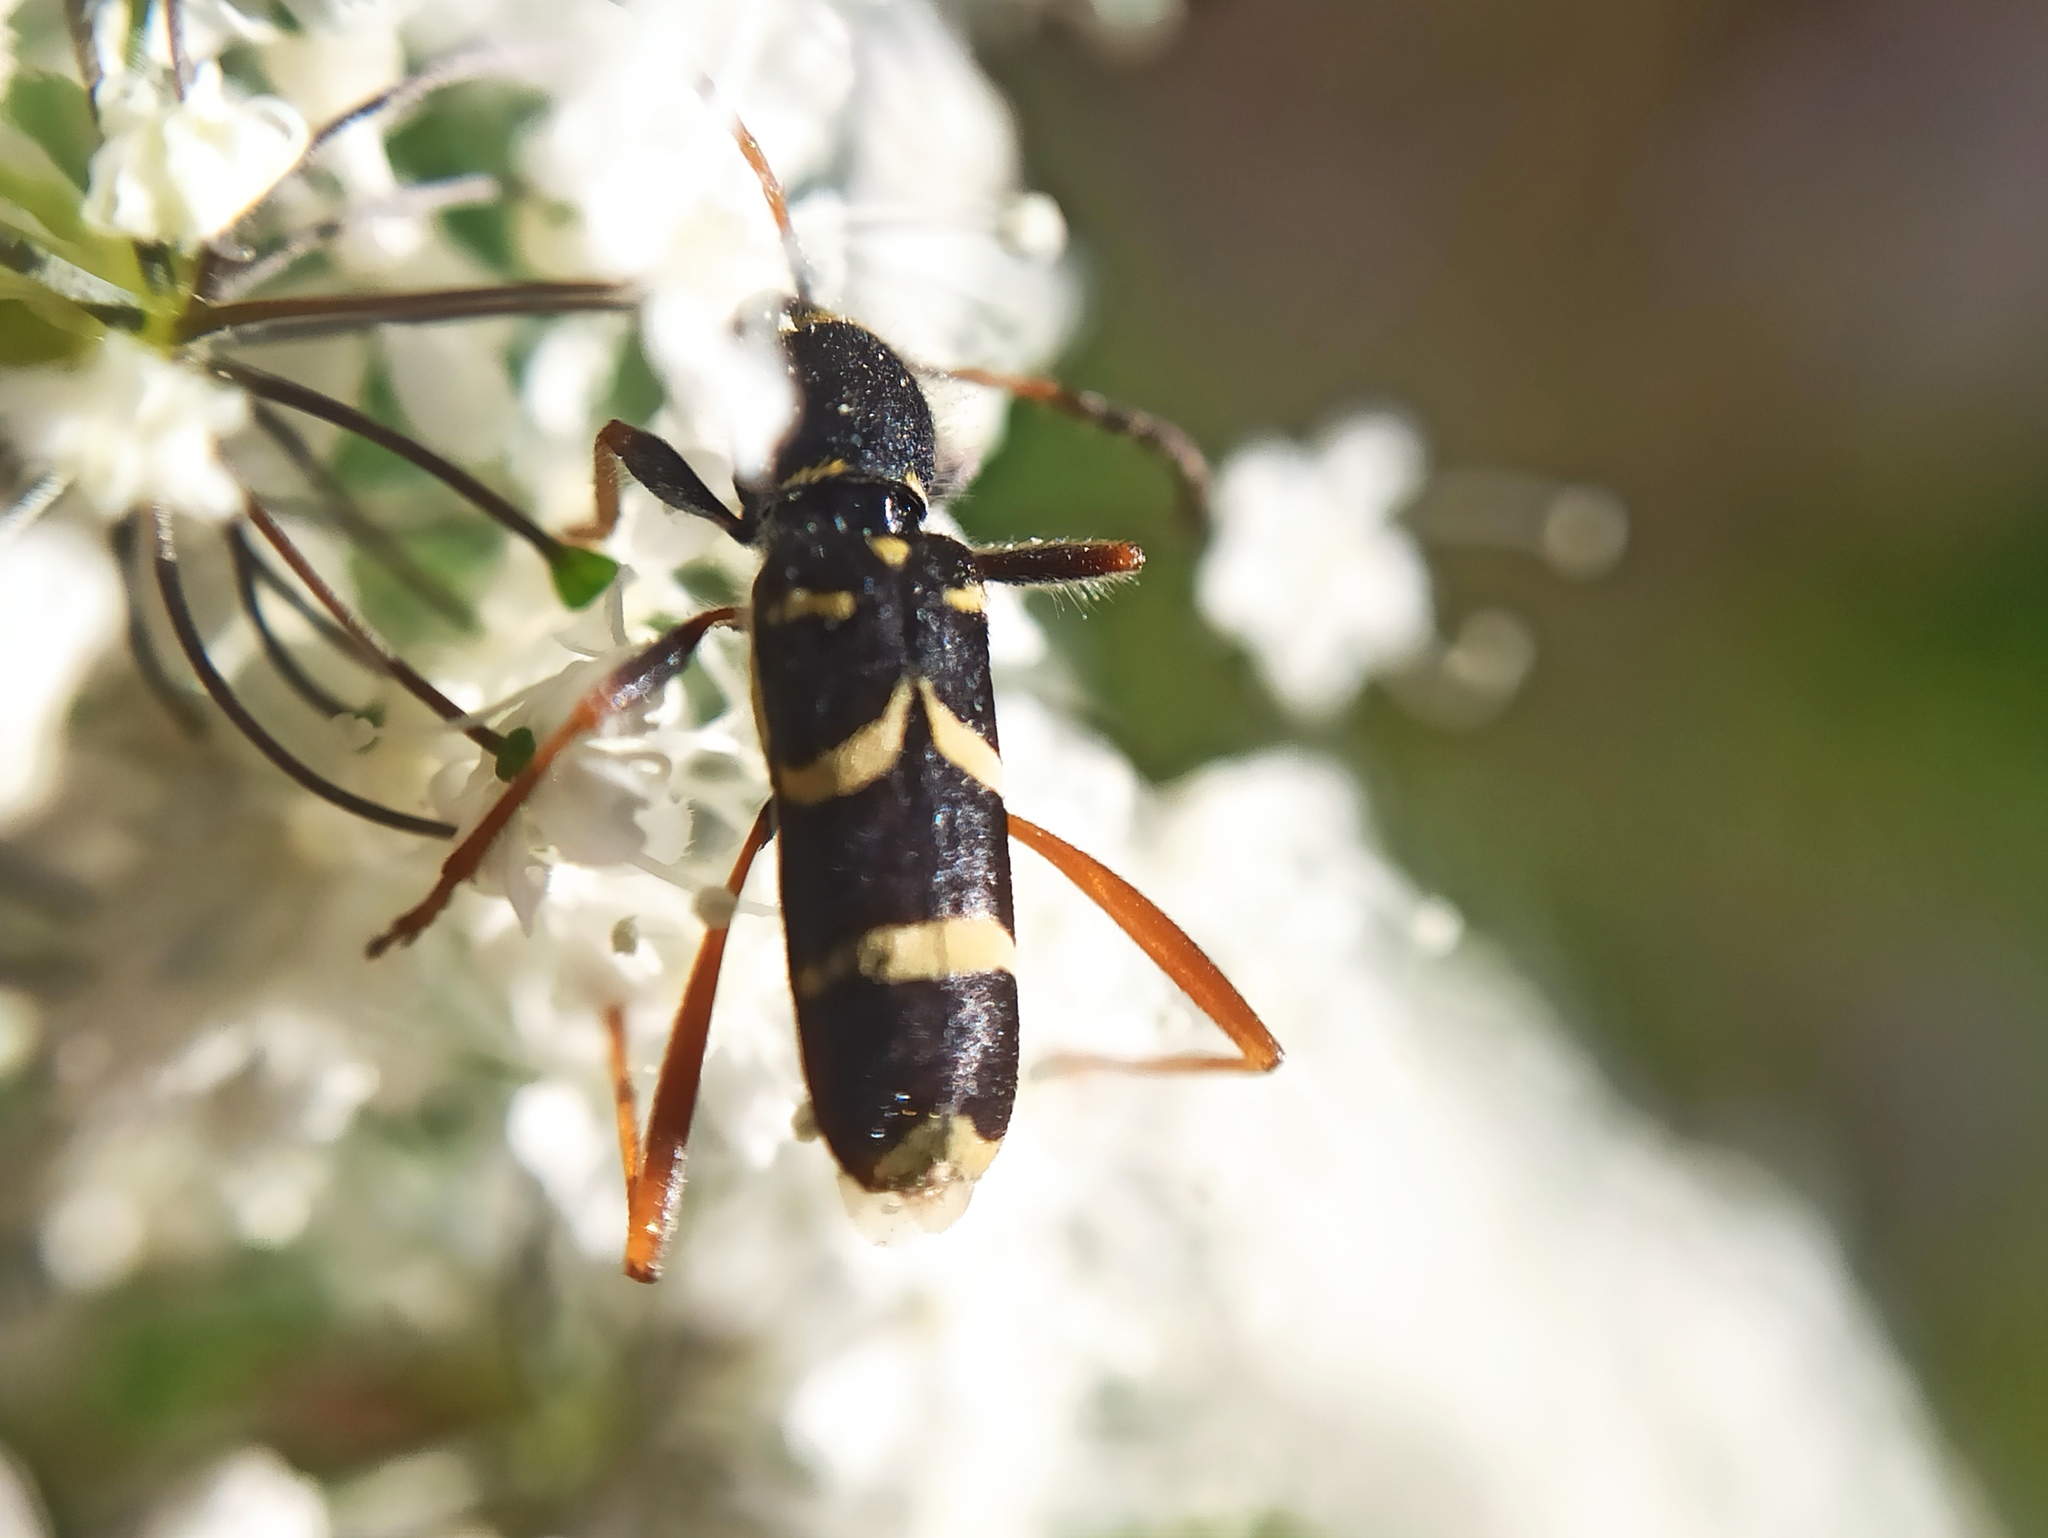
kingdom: Animalia
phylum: Arthropoda
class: Insecta
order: Coleoptera
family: Cerambycidae
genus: Clytus
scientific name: Clytus arietis
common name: Wasp beetle
